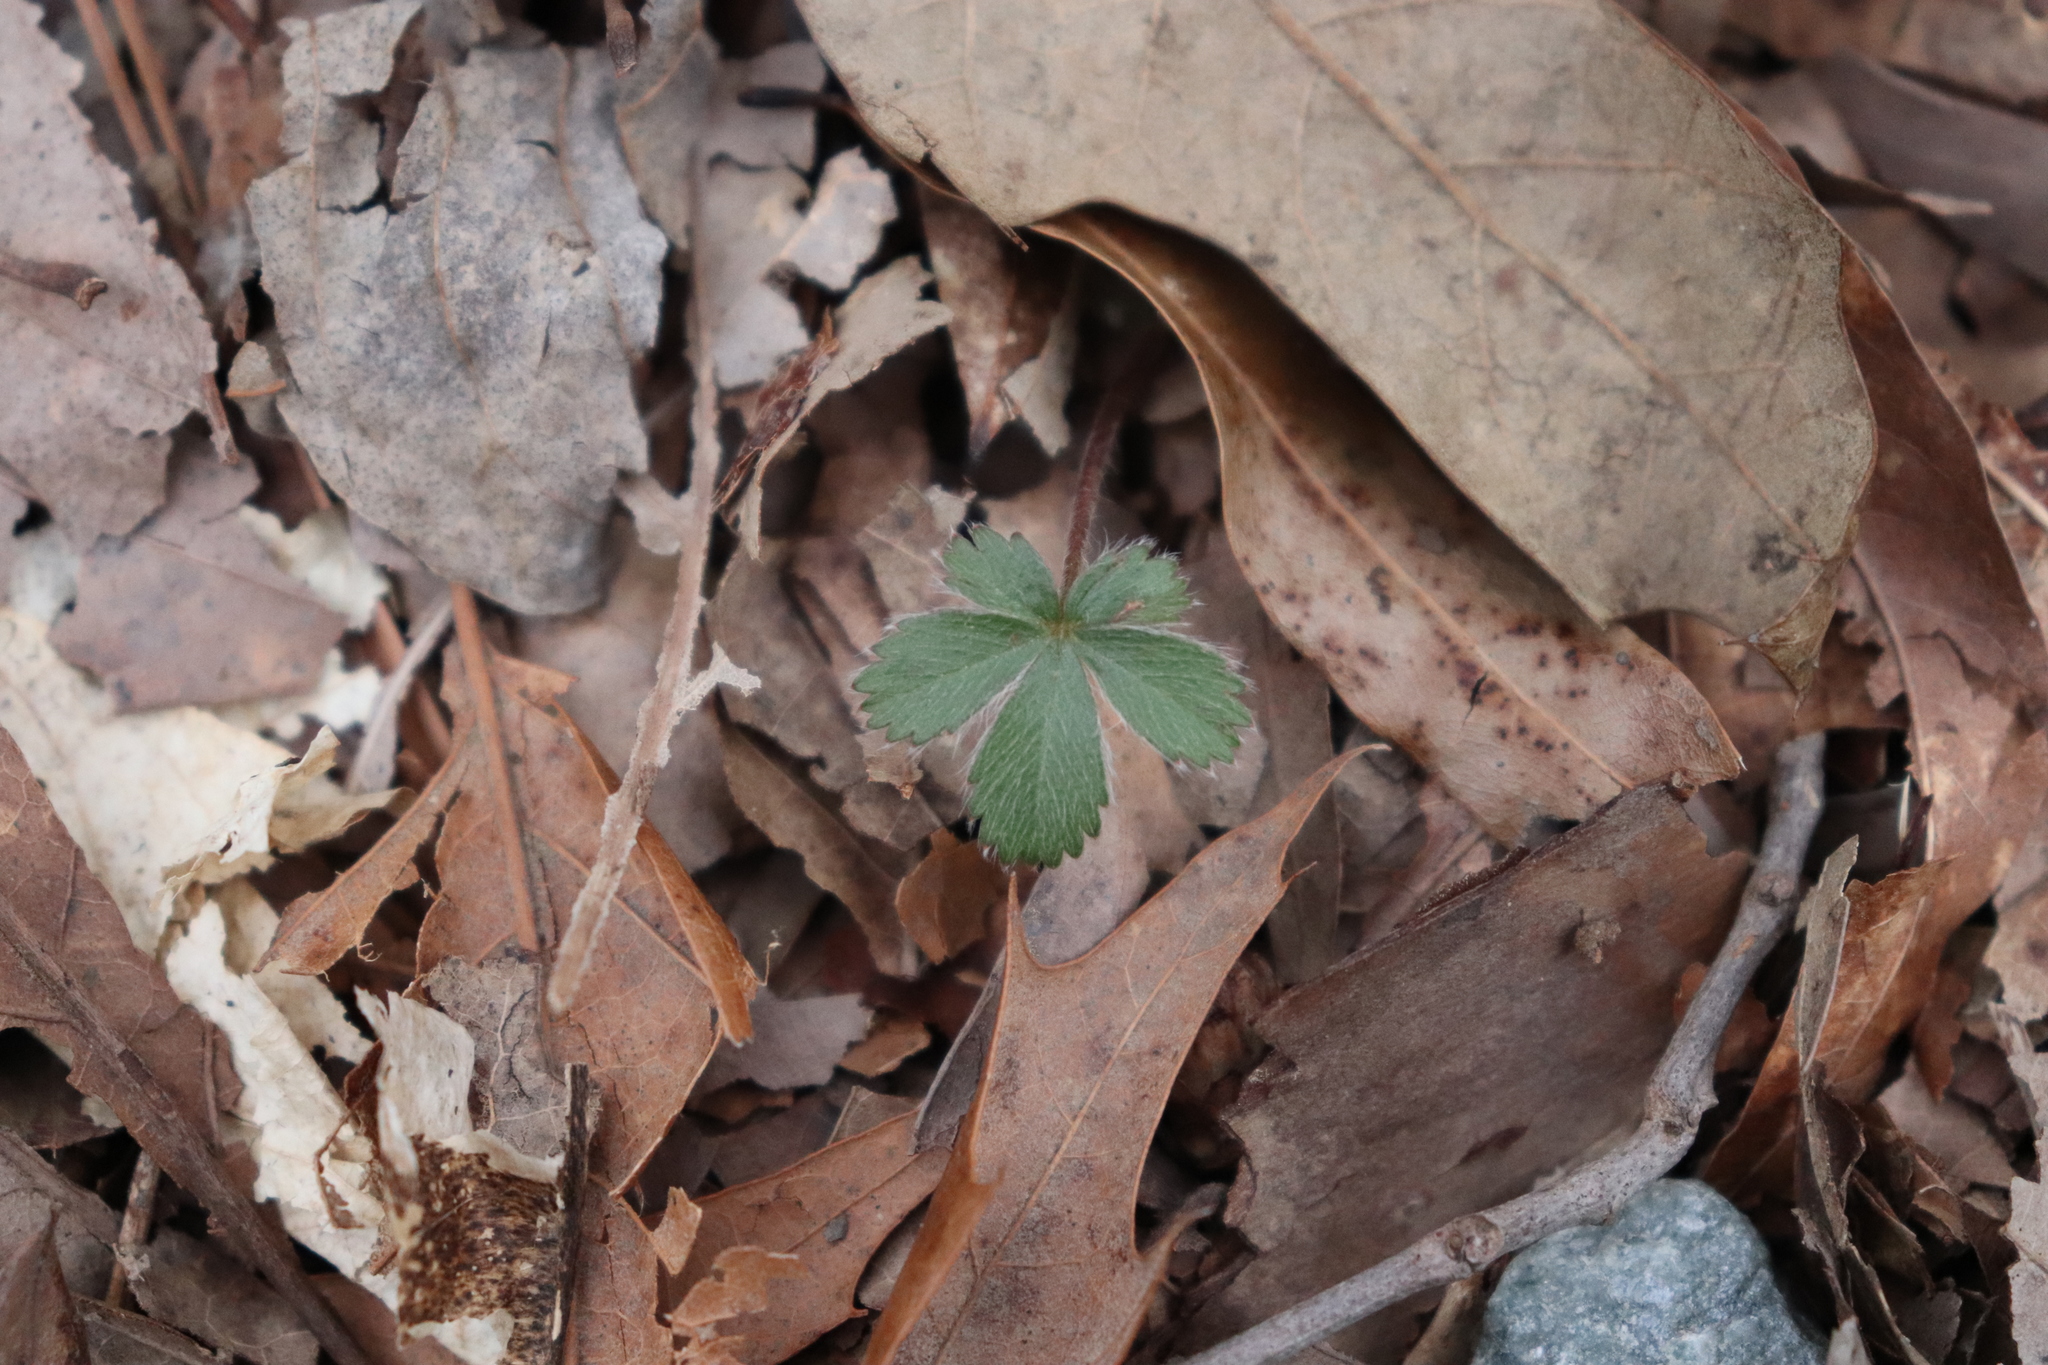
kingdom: Plantae
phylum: Tracheophyta
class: Magnoliopsida
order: Rosales
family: Rosaceae
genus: Potentilla
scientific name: Potentilla
